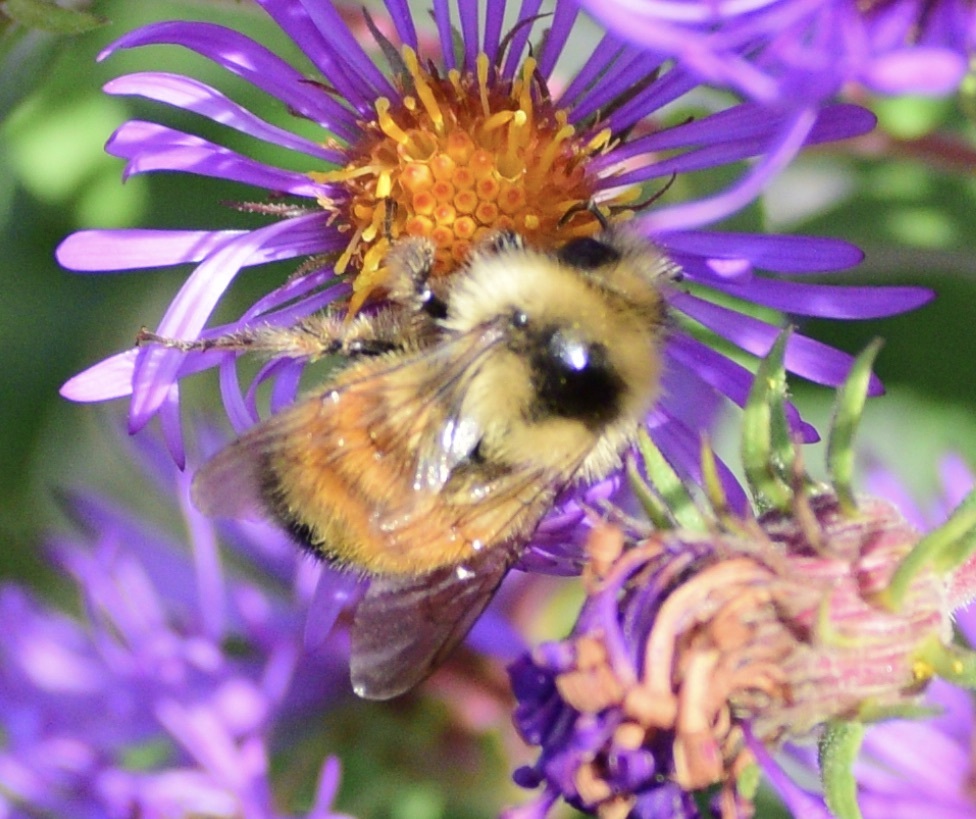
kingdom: Animalia
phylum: Arthropoda
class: Insecta
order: Hymenoptera
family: Apidae
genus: Bombus
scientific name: Bombus ternarius
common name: Tri-colored bumble bee
